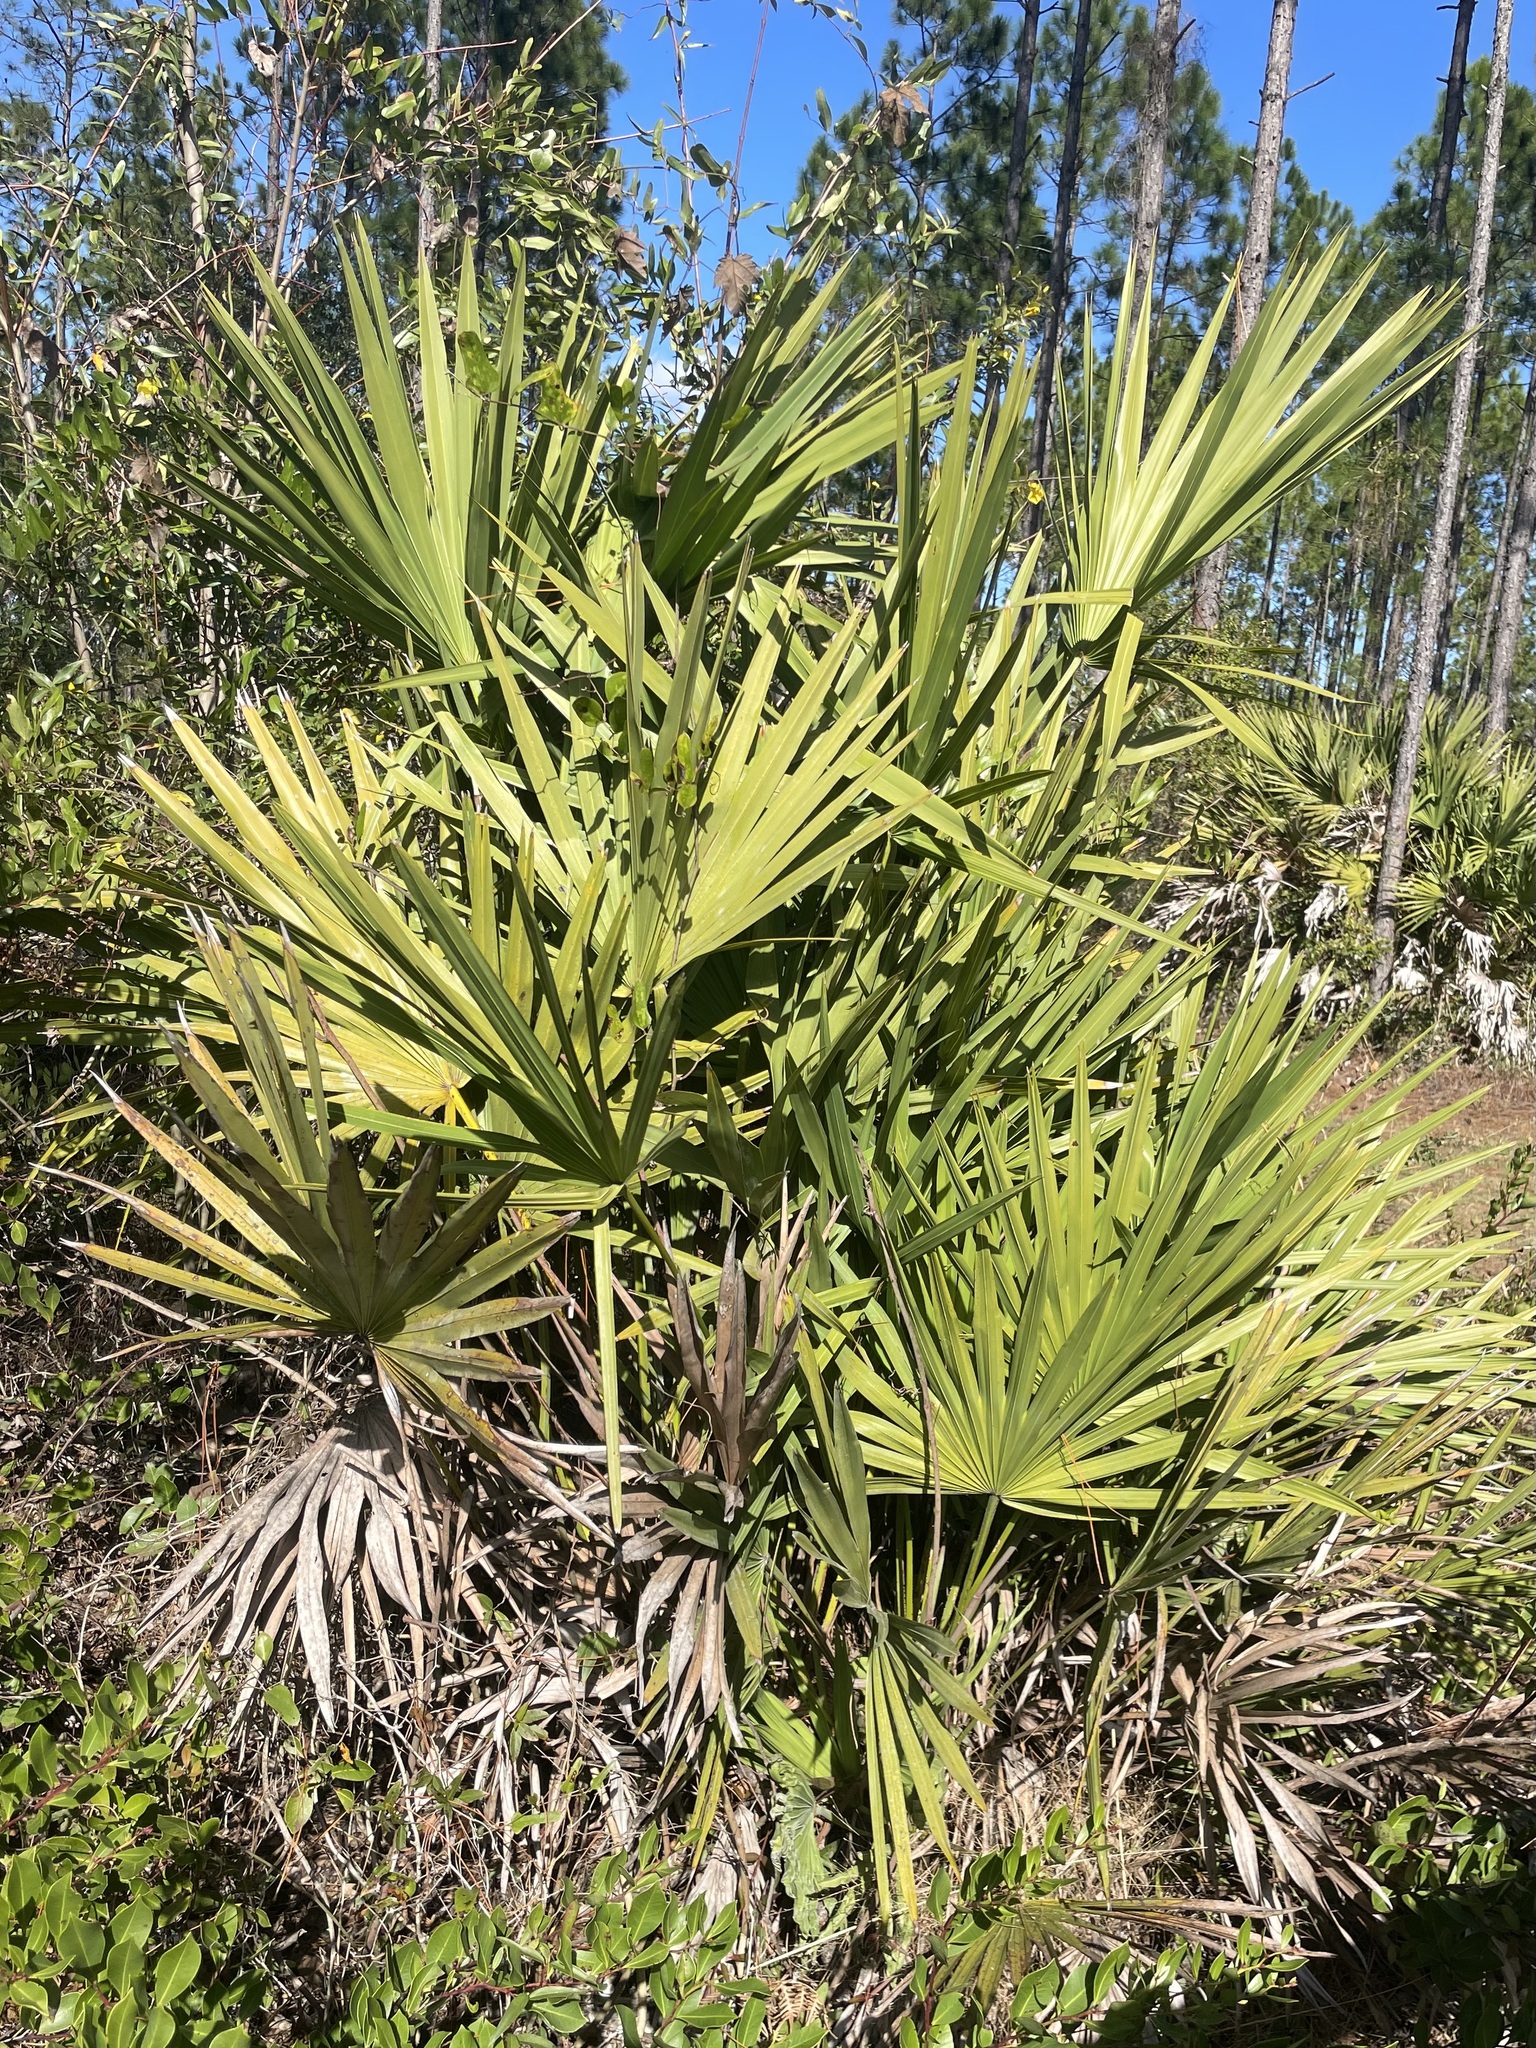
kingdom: Plantae
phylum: Tracheophyta
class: Liliopsida
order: Arecales
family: Arecaceae
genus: Serenoa
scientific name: Serenoa repens
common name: Saw-palmetto
